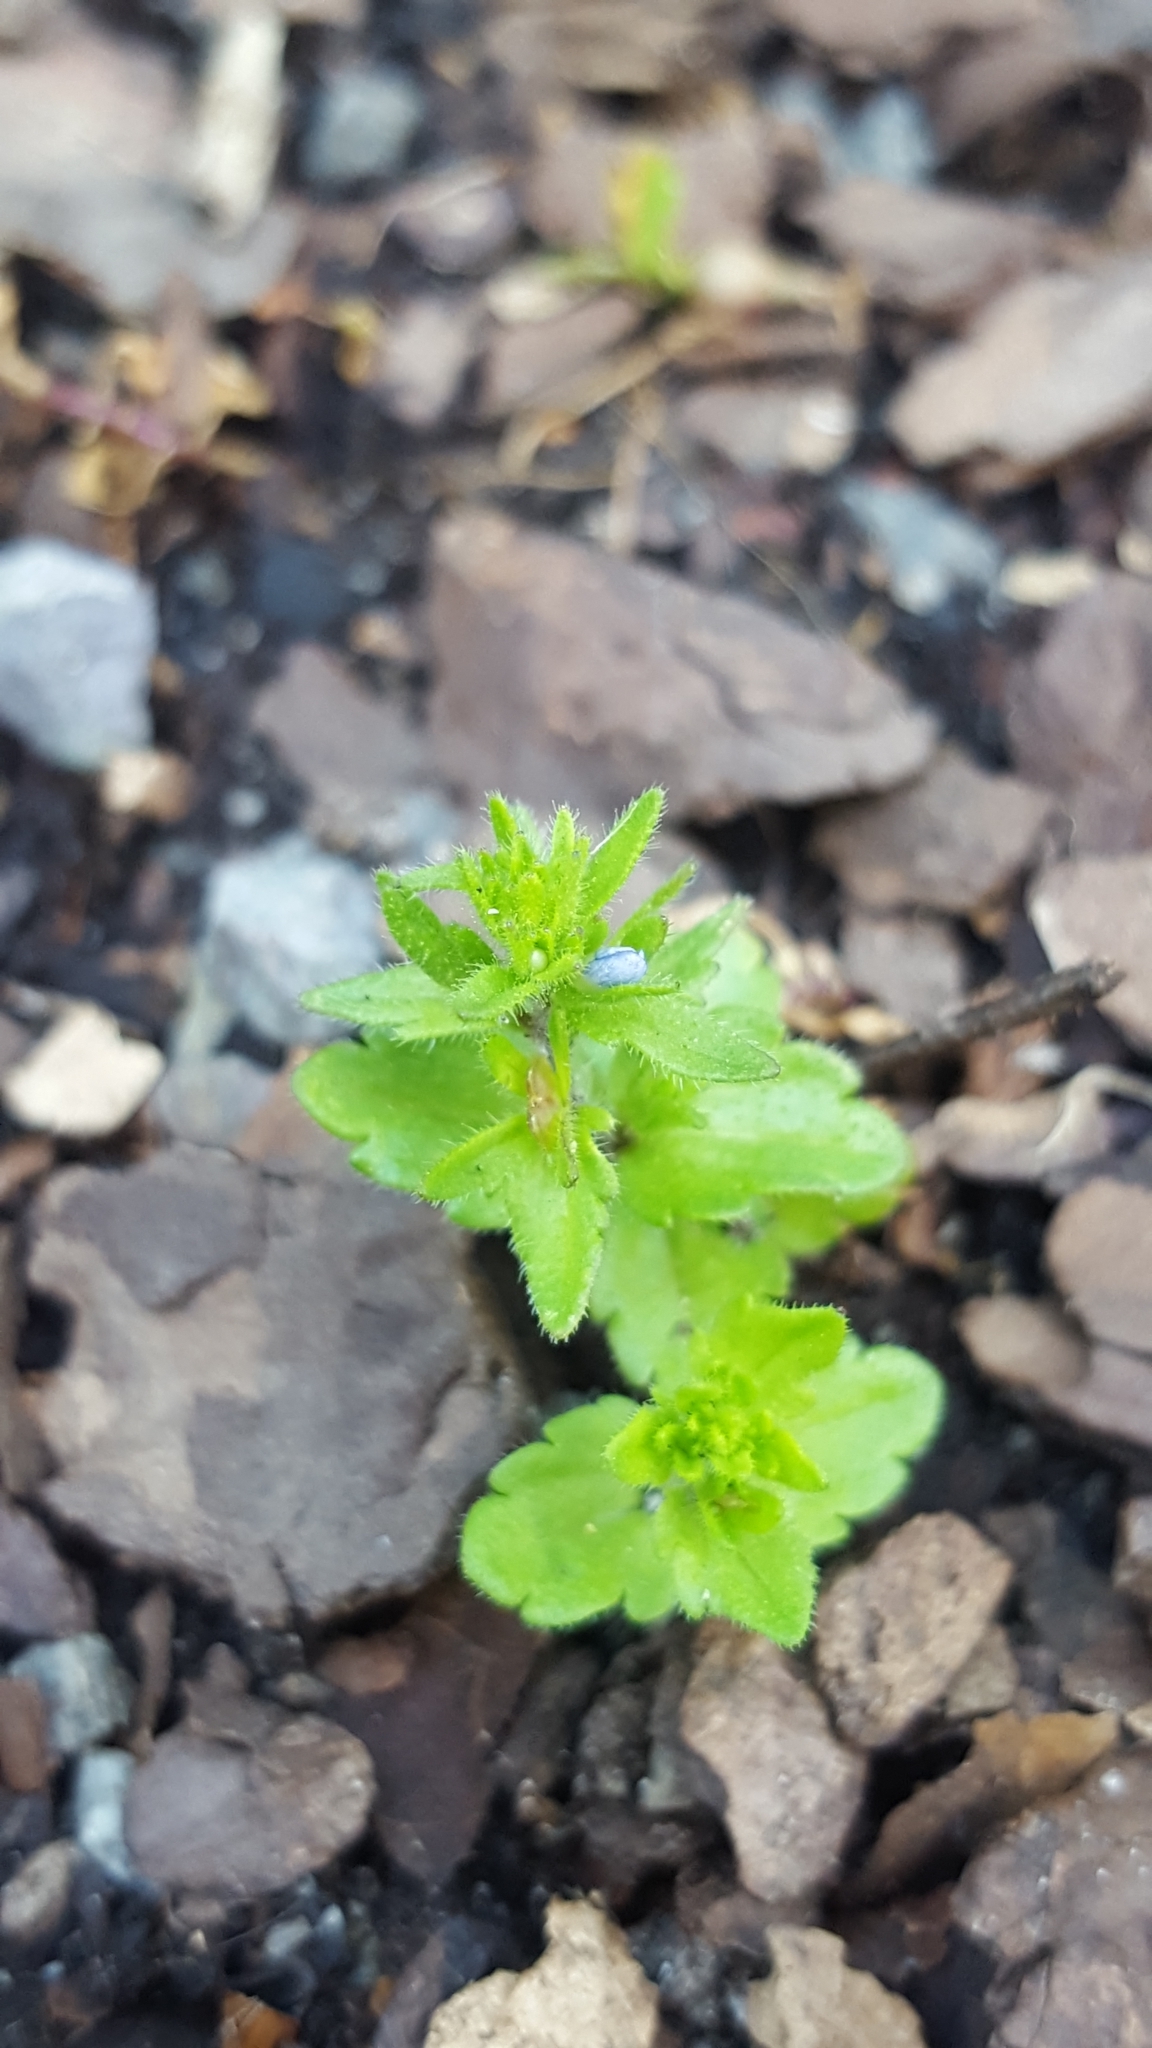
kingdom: Plantae
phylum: Tracheophyta
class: Magnoliopsida
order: Lamiales
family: Plantaginaceae
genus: Veronica
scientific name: Veronica arvensis
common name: Corn speedwell
